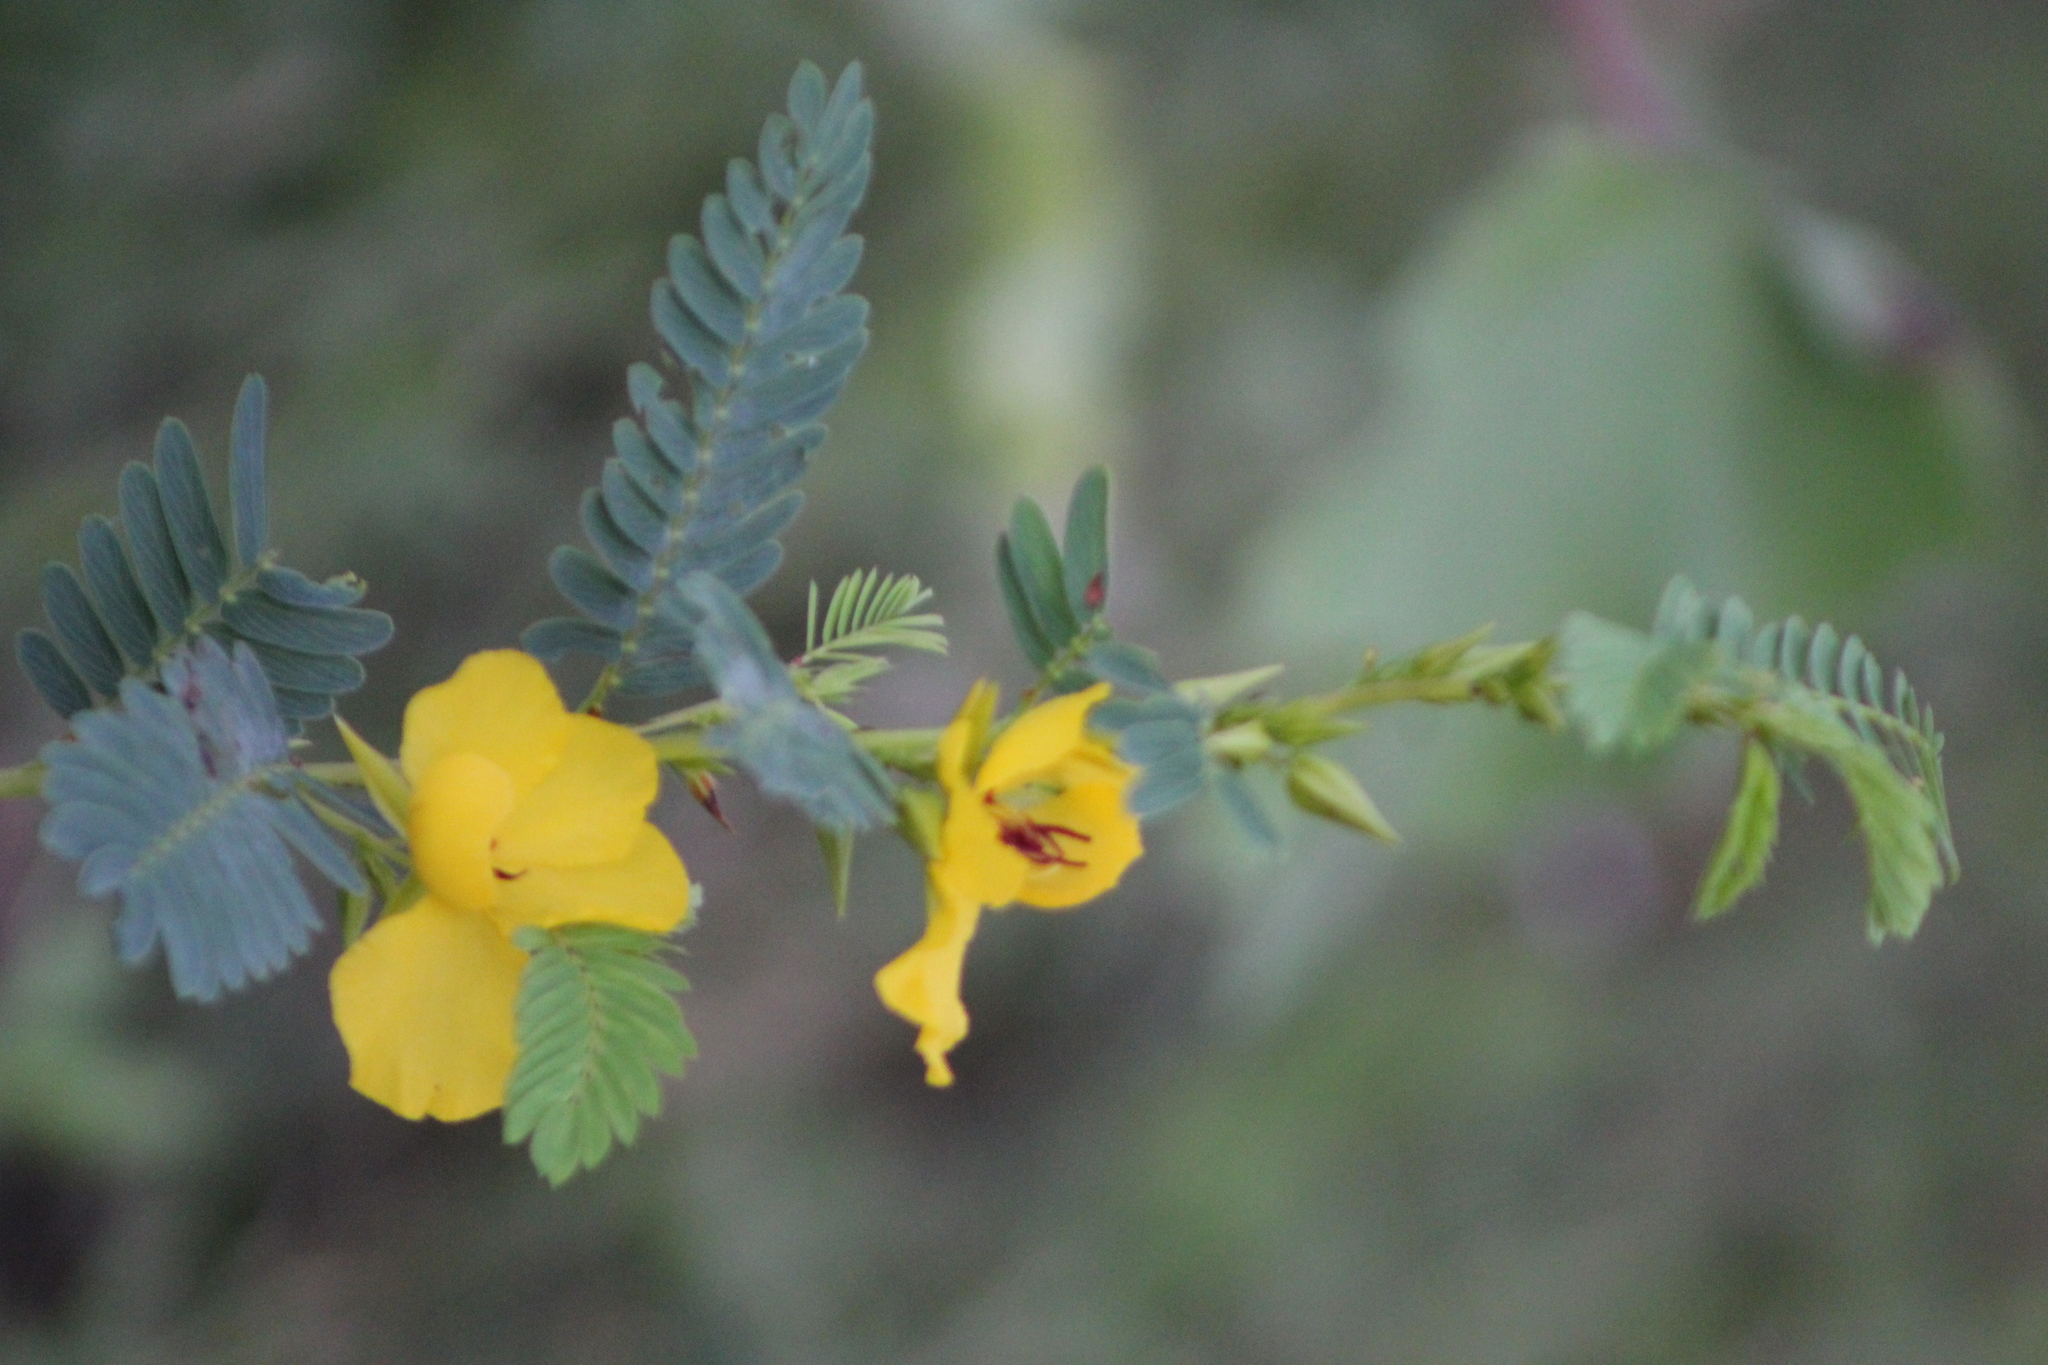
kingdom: Plantae
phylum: Tracheophyta
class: Magnoliopsida
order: Fabales
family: Fabaceae
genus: Chamaecrista
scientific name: Chamaecrista fasciculata
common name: Golden cassia
